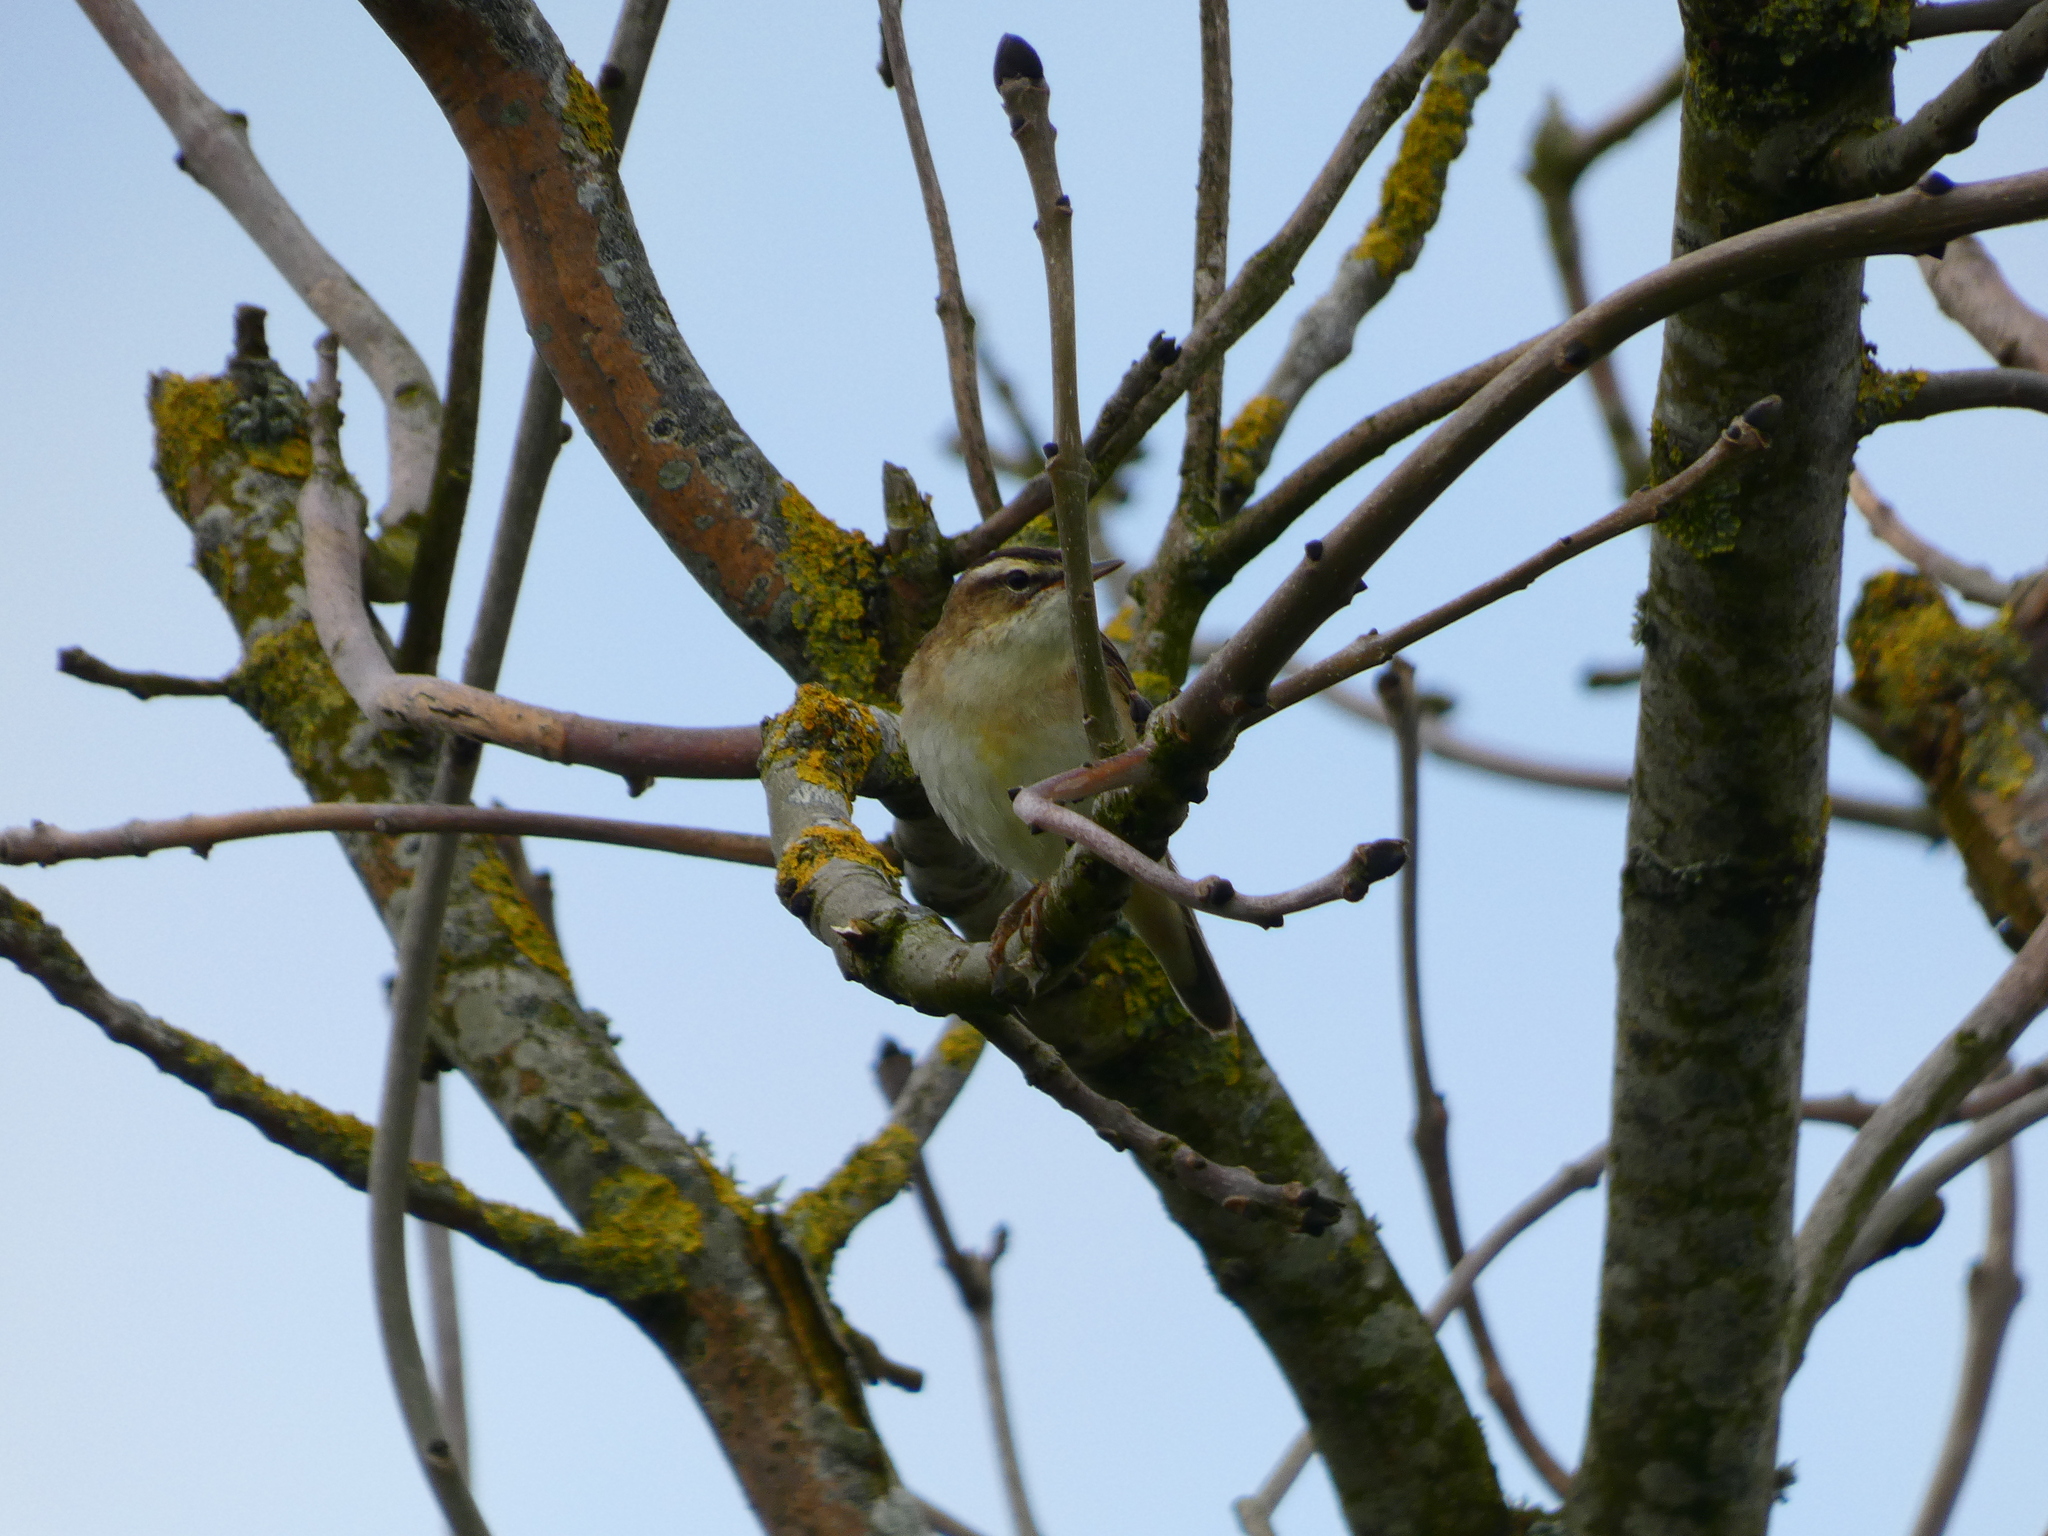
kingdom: Animalia
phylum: Chordata
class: Aves
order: Passeriformes
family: Acrocephalidae
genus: Acrocephalus
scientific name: Acrocephalus schoenobaenus
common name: Sedge warbler
